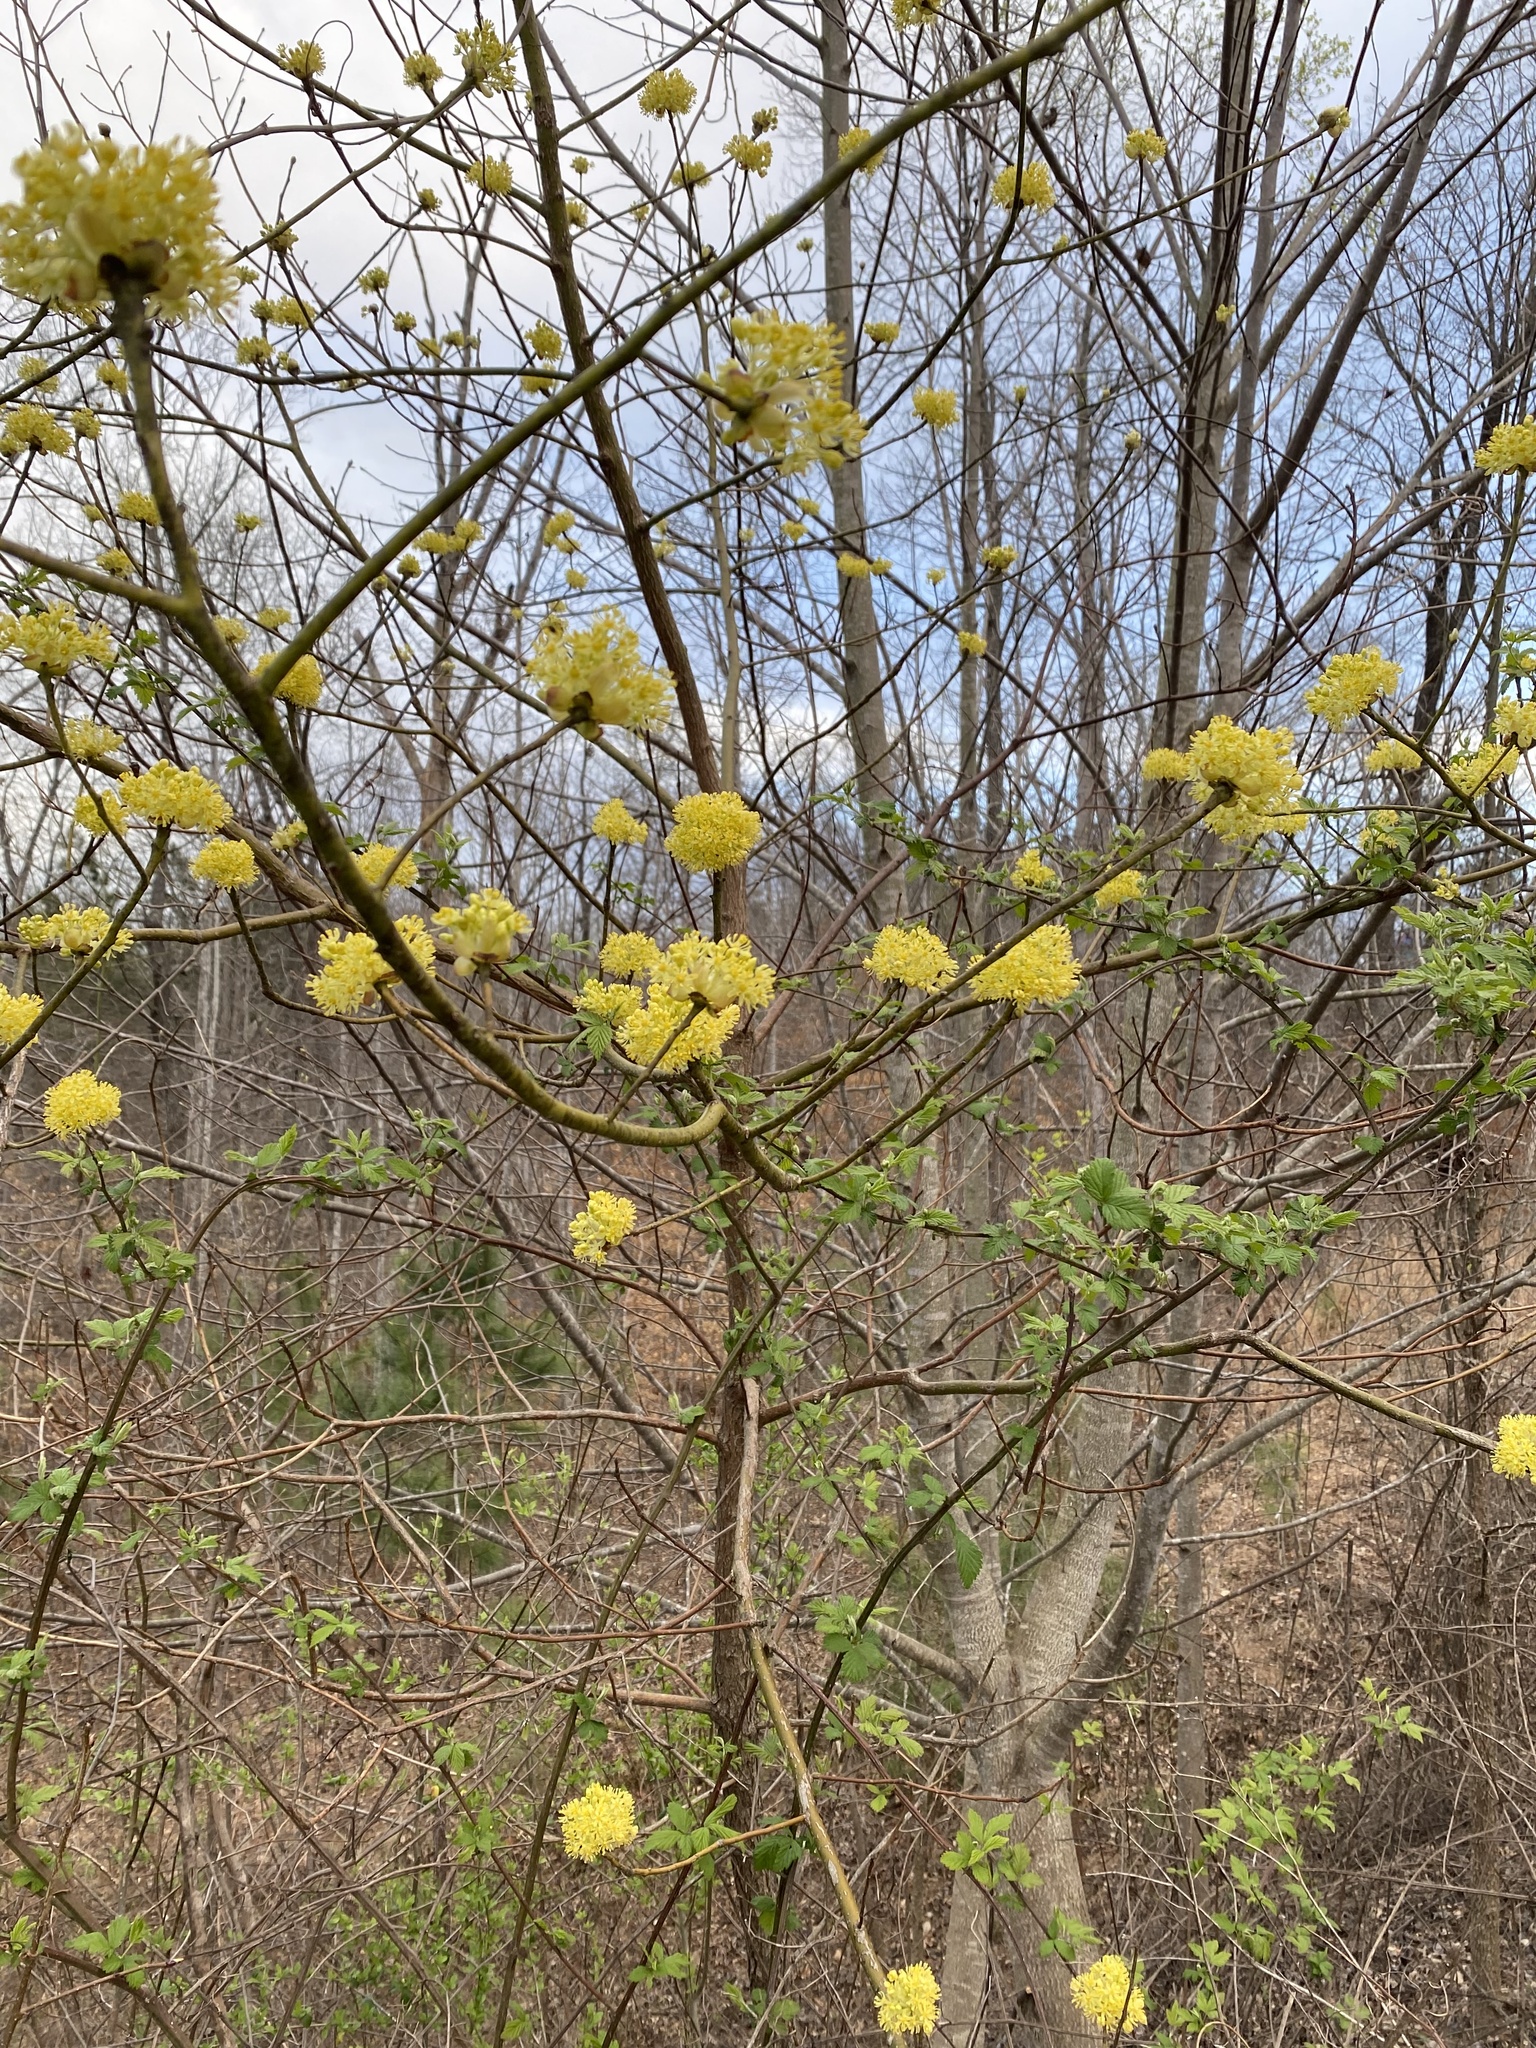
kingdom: Plantae
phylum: Tracheophyta
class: Magnoliopsida
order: Laurales
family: Lauraceae
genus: Sassafras
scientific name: Sassafras albidum
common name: Sassafras
